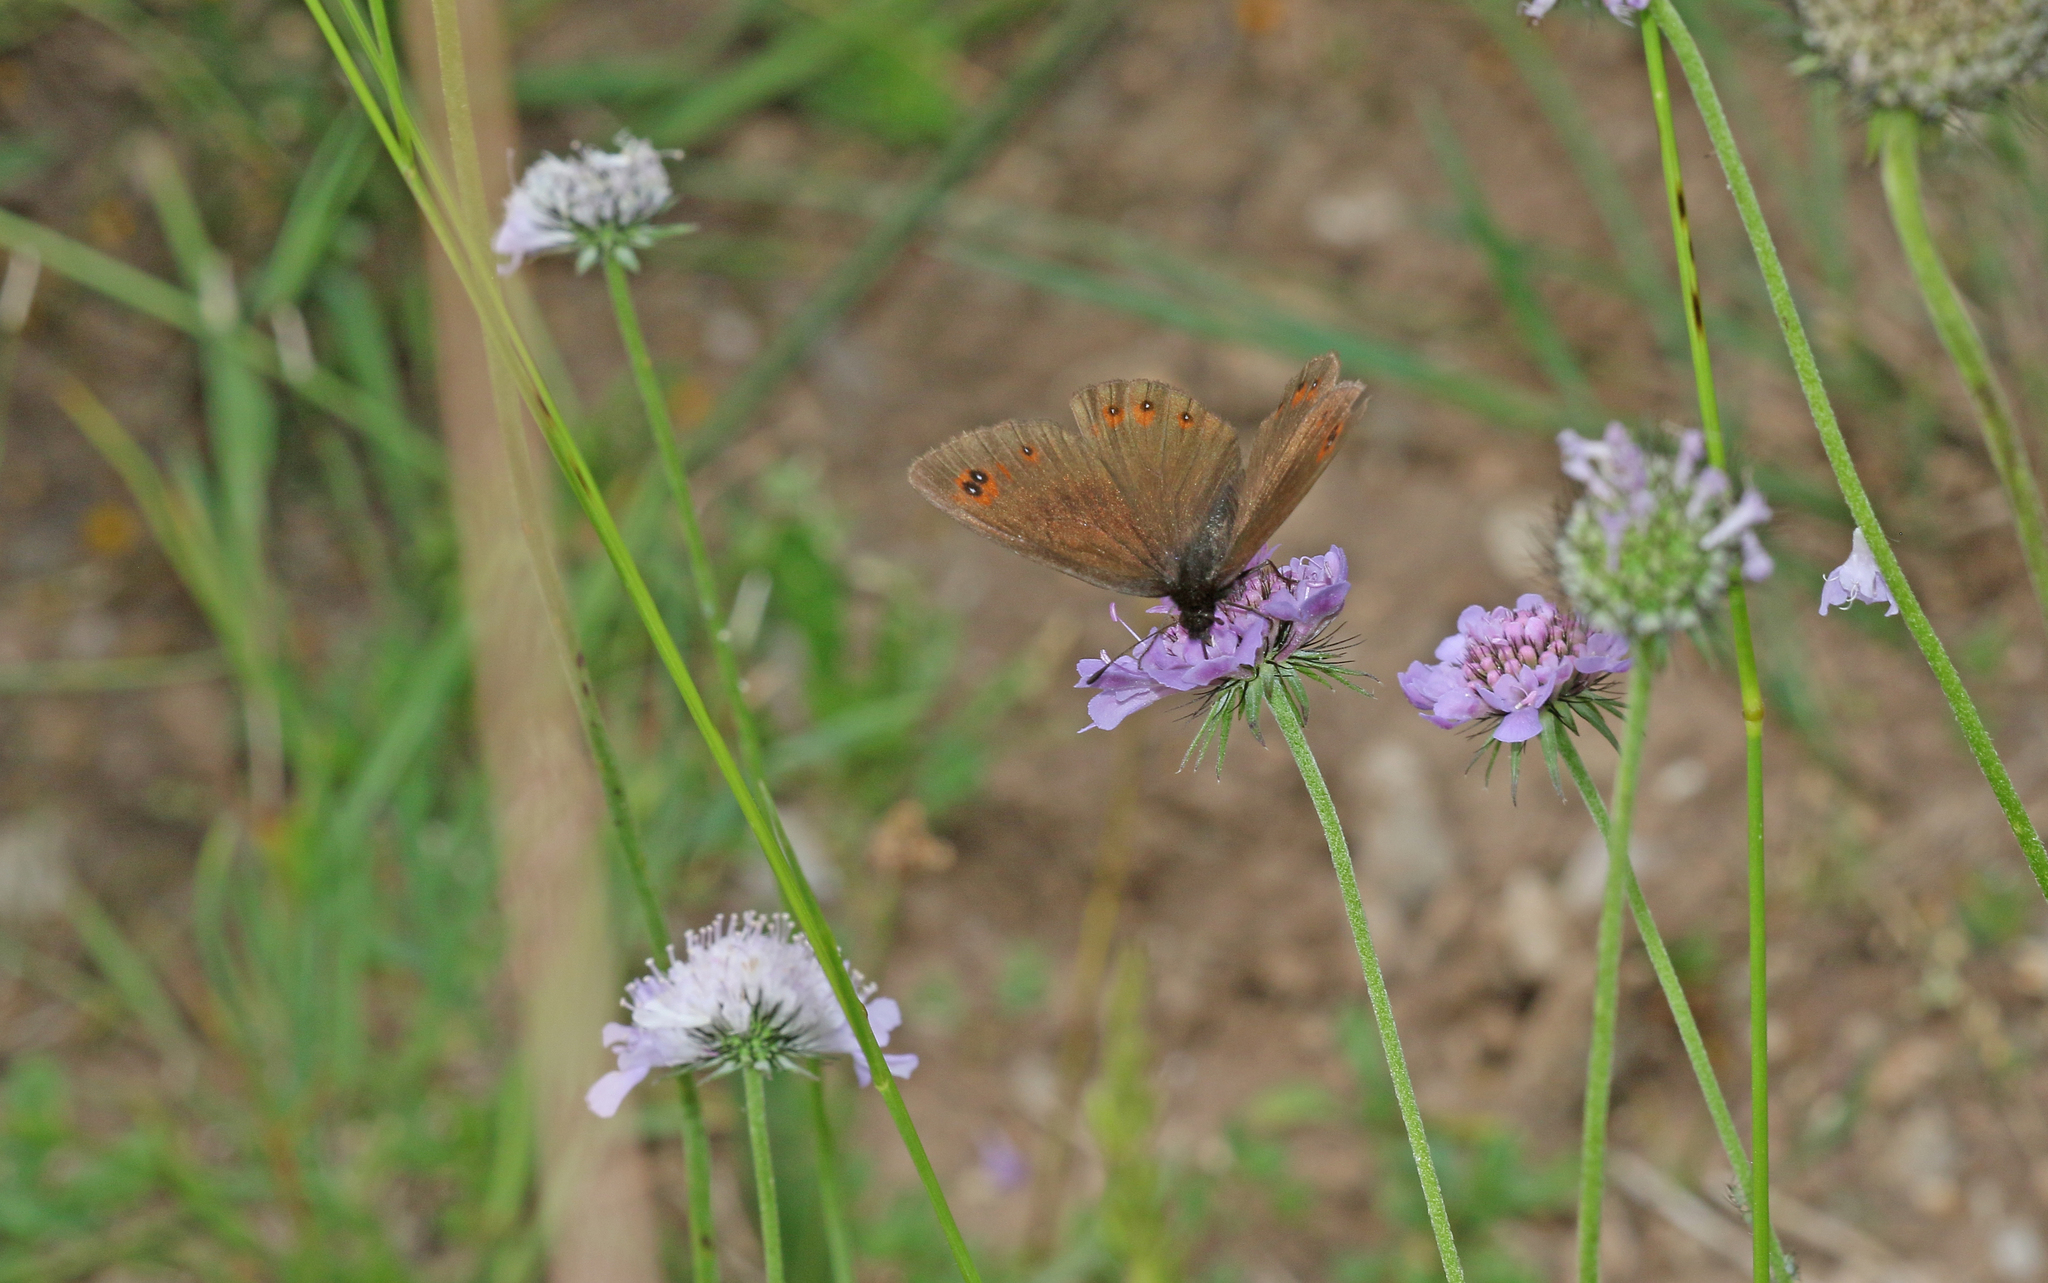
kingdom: Animalia
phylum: Arthropoda
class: Insecta
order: Lepidoptera
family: Nymphalidae
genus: Erebia
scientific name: Erebia meolans
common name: Piedmont ringlet
